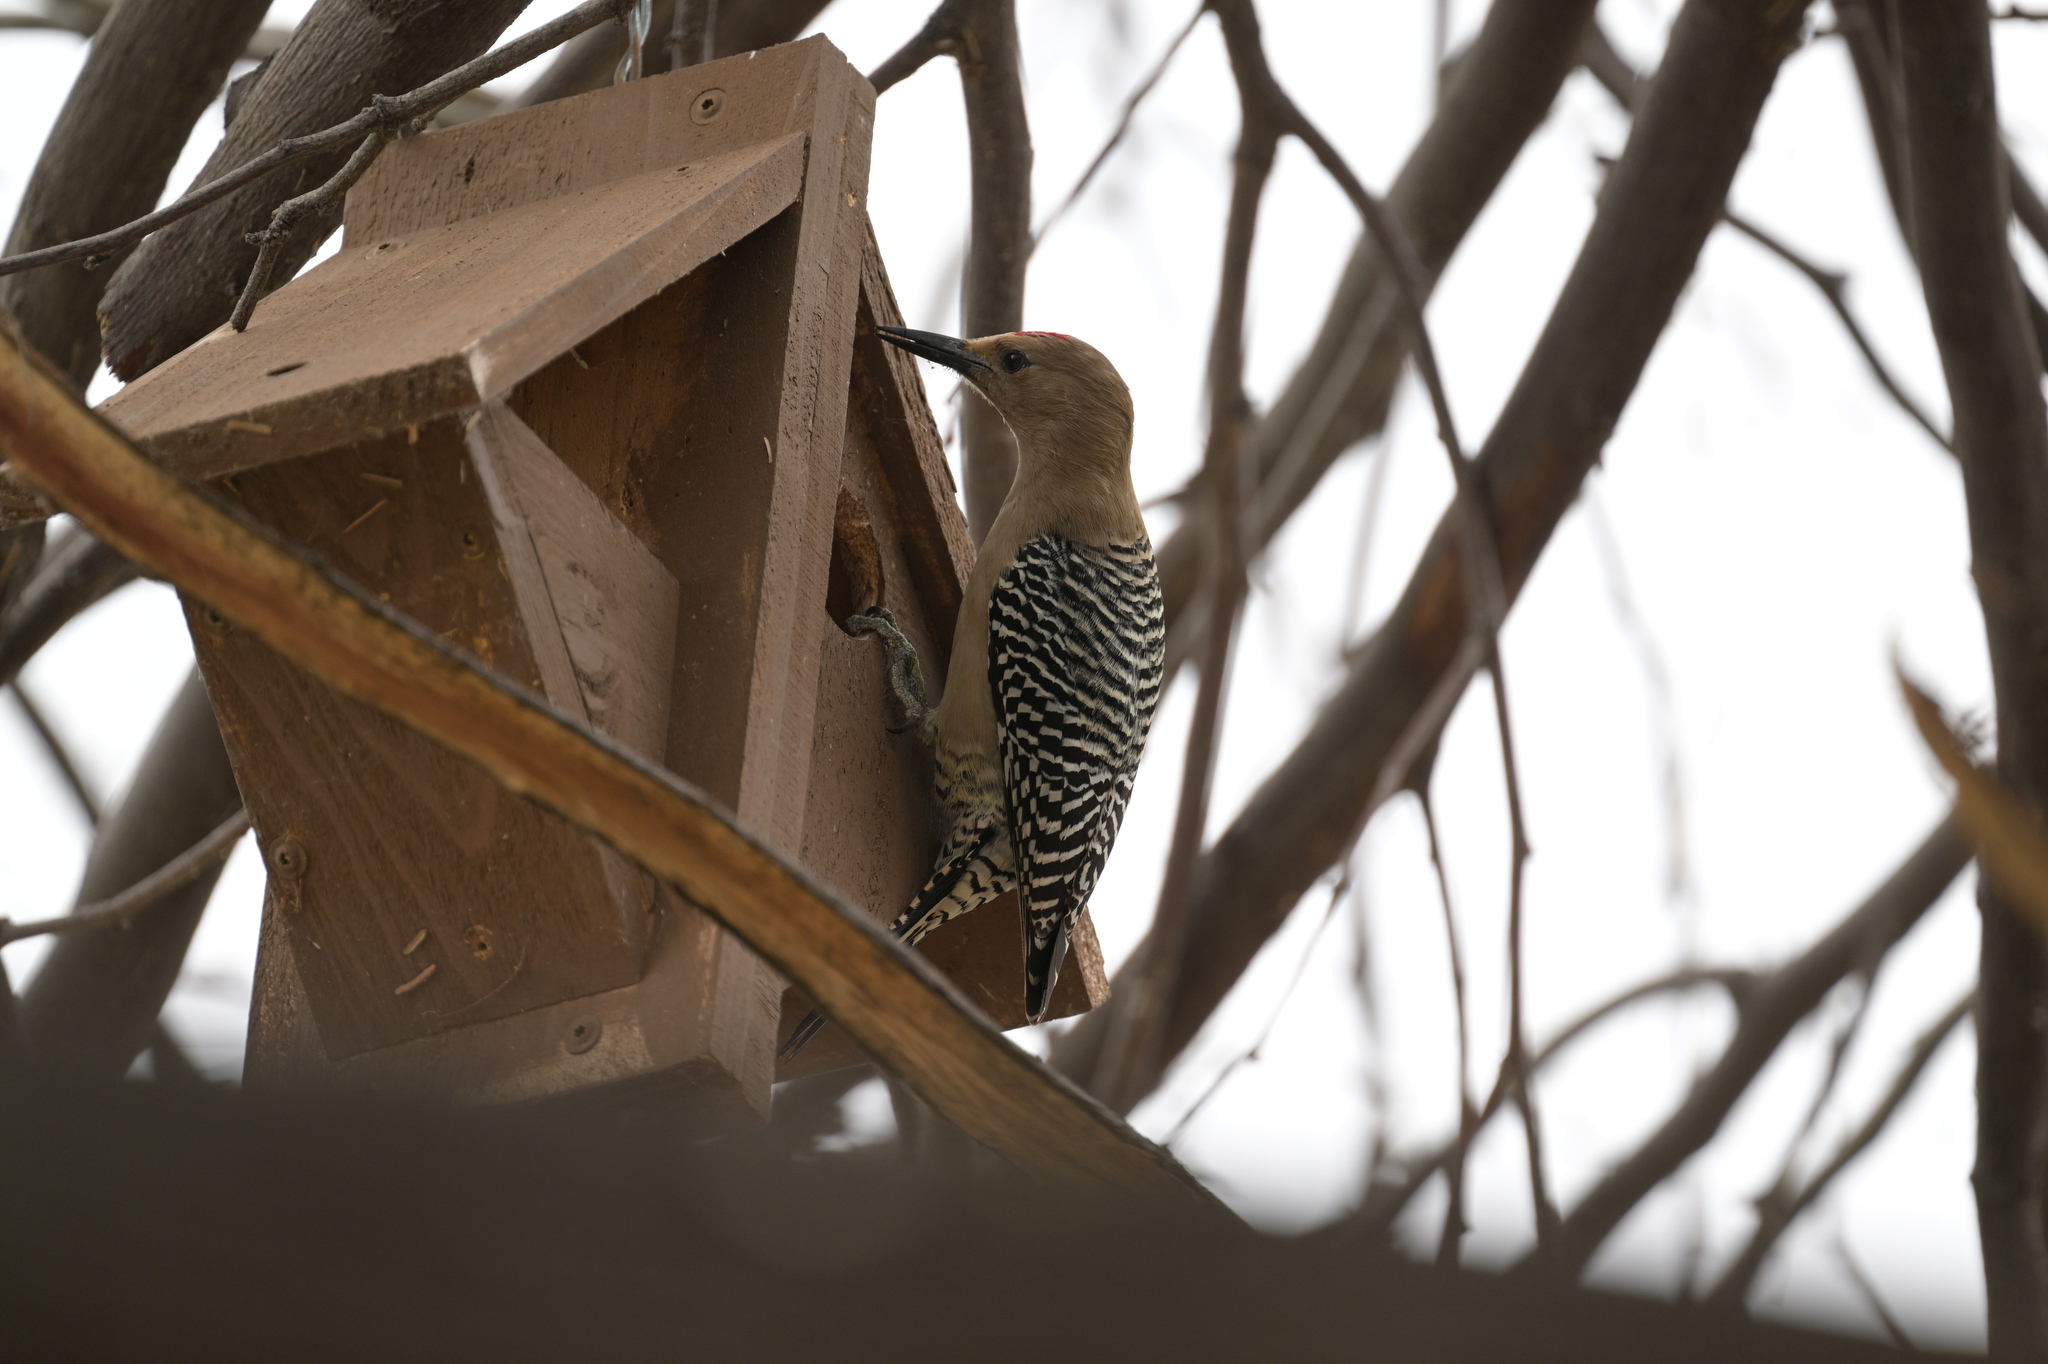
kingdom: Animalia
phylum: Chordata
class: Aves
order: Piciformes
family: Picidae
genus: Melanerpes
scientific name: Melanerpes uropygialis
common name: Gila woodpecker
